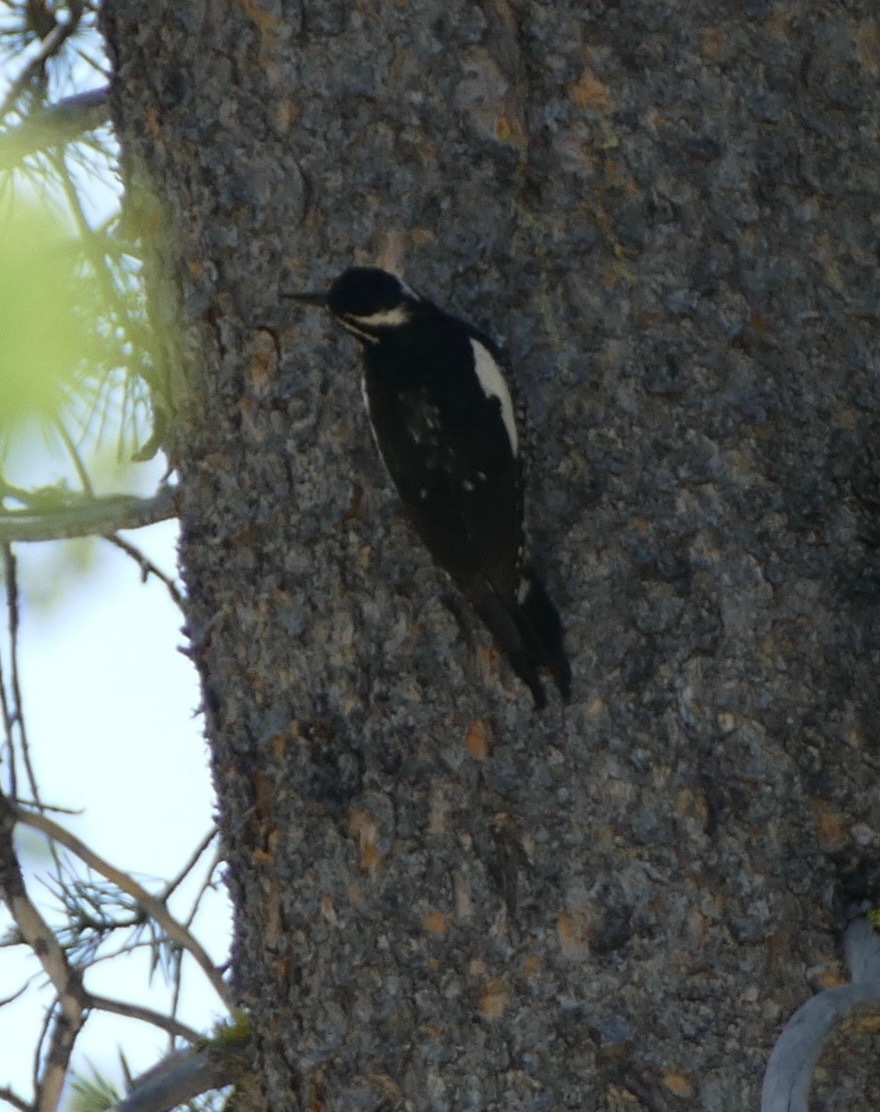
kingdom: Animalia
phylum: Chordata
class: Aves
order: Piciformes
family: Picidae
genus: Sphyrapicus
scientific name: Sphyrapicus thyroideus
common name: Williamson's sapsucker
